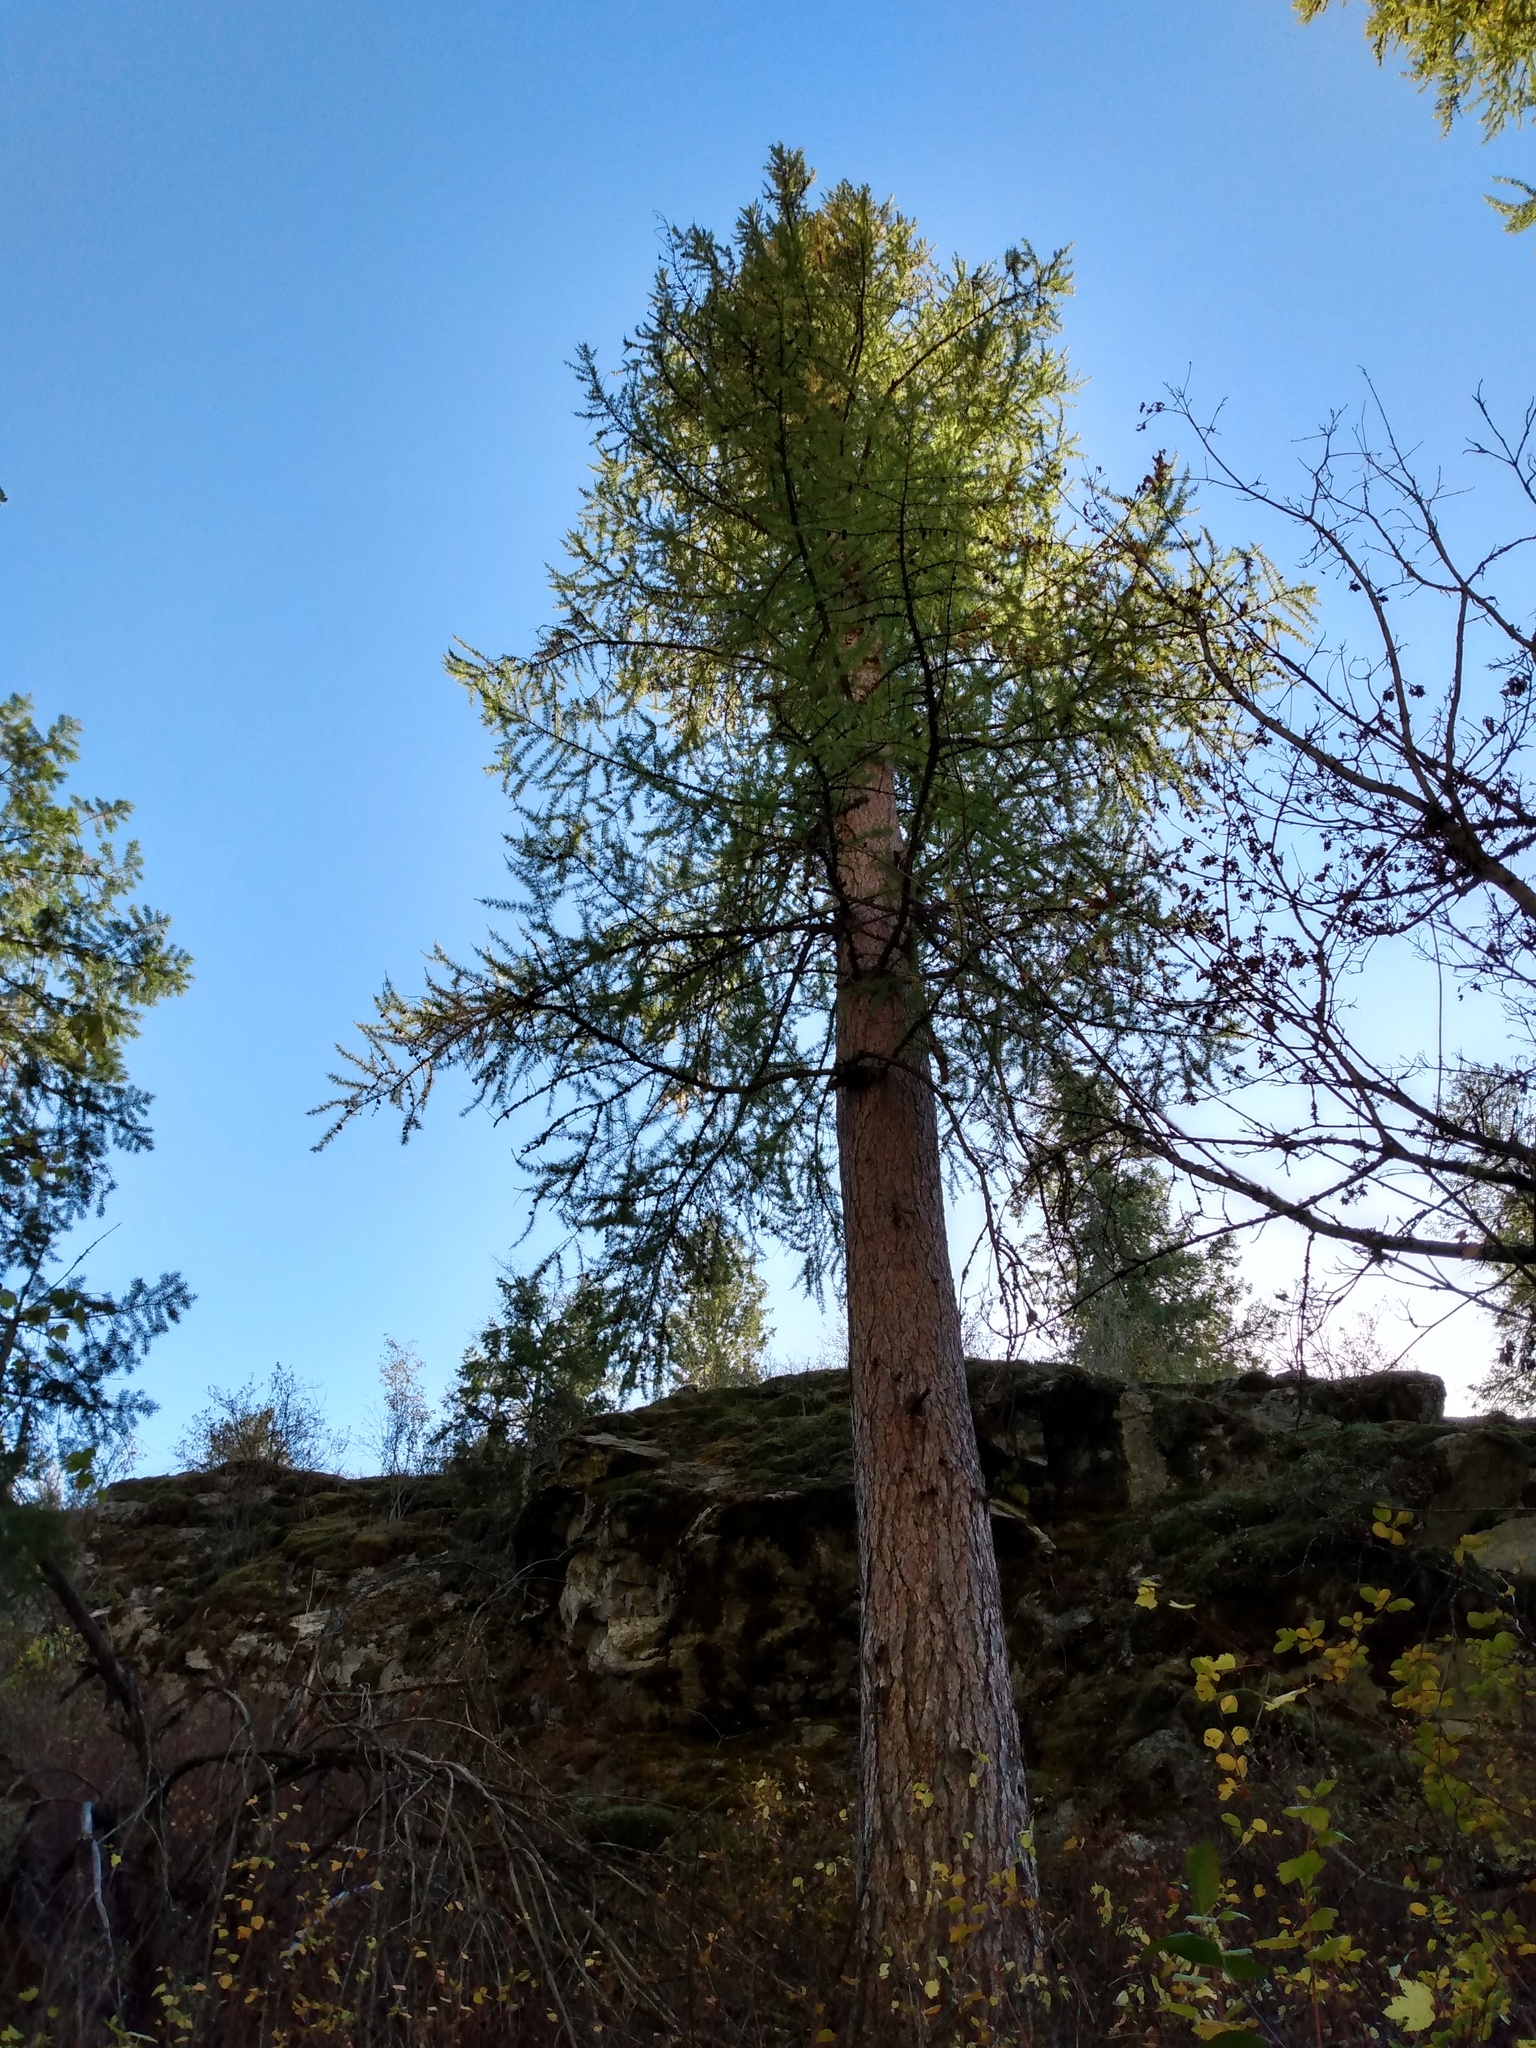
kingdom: Plantae
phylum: Tracheophyta
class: Pinopsida
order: Pinales
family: Pinaceae
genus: Larix
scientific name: Larix occidentalis
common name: Western larch
